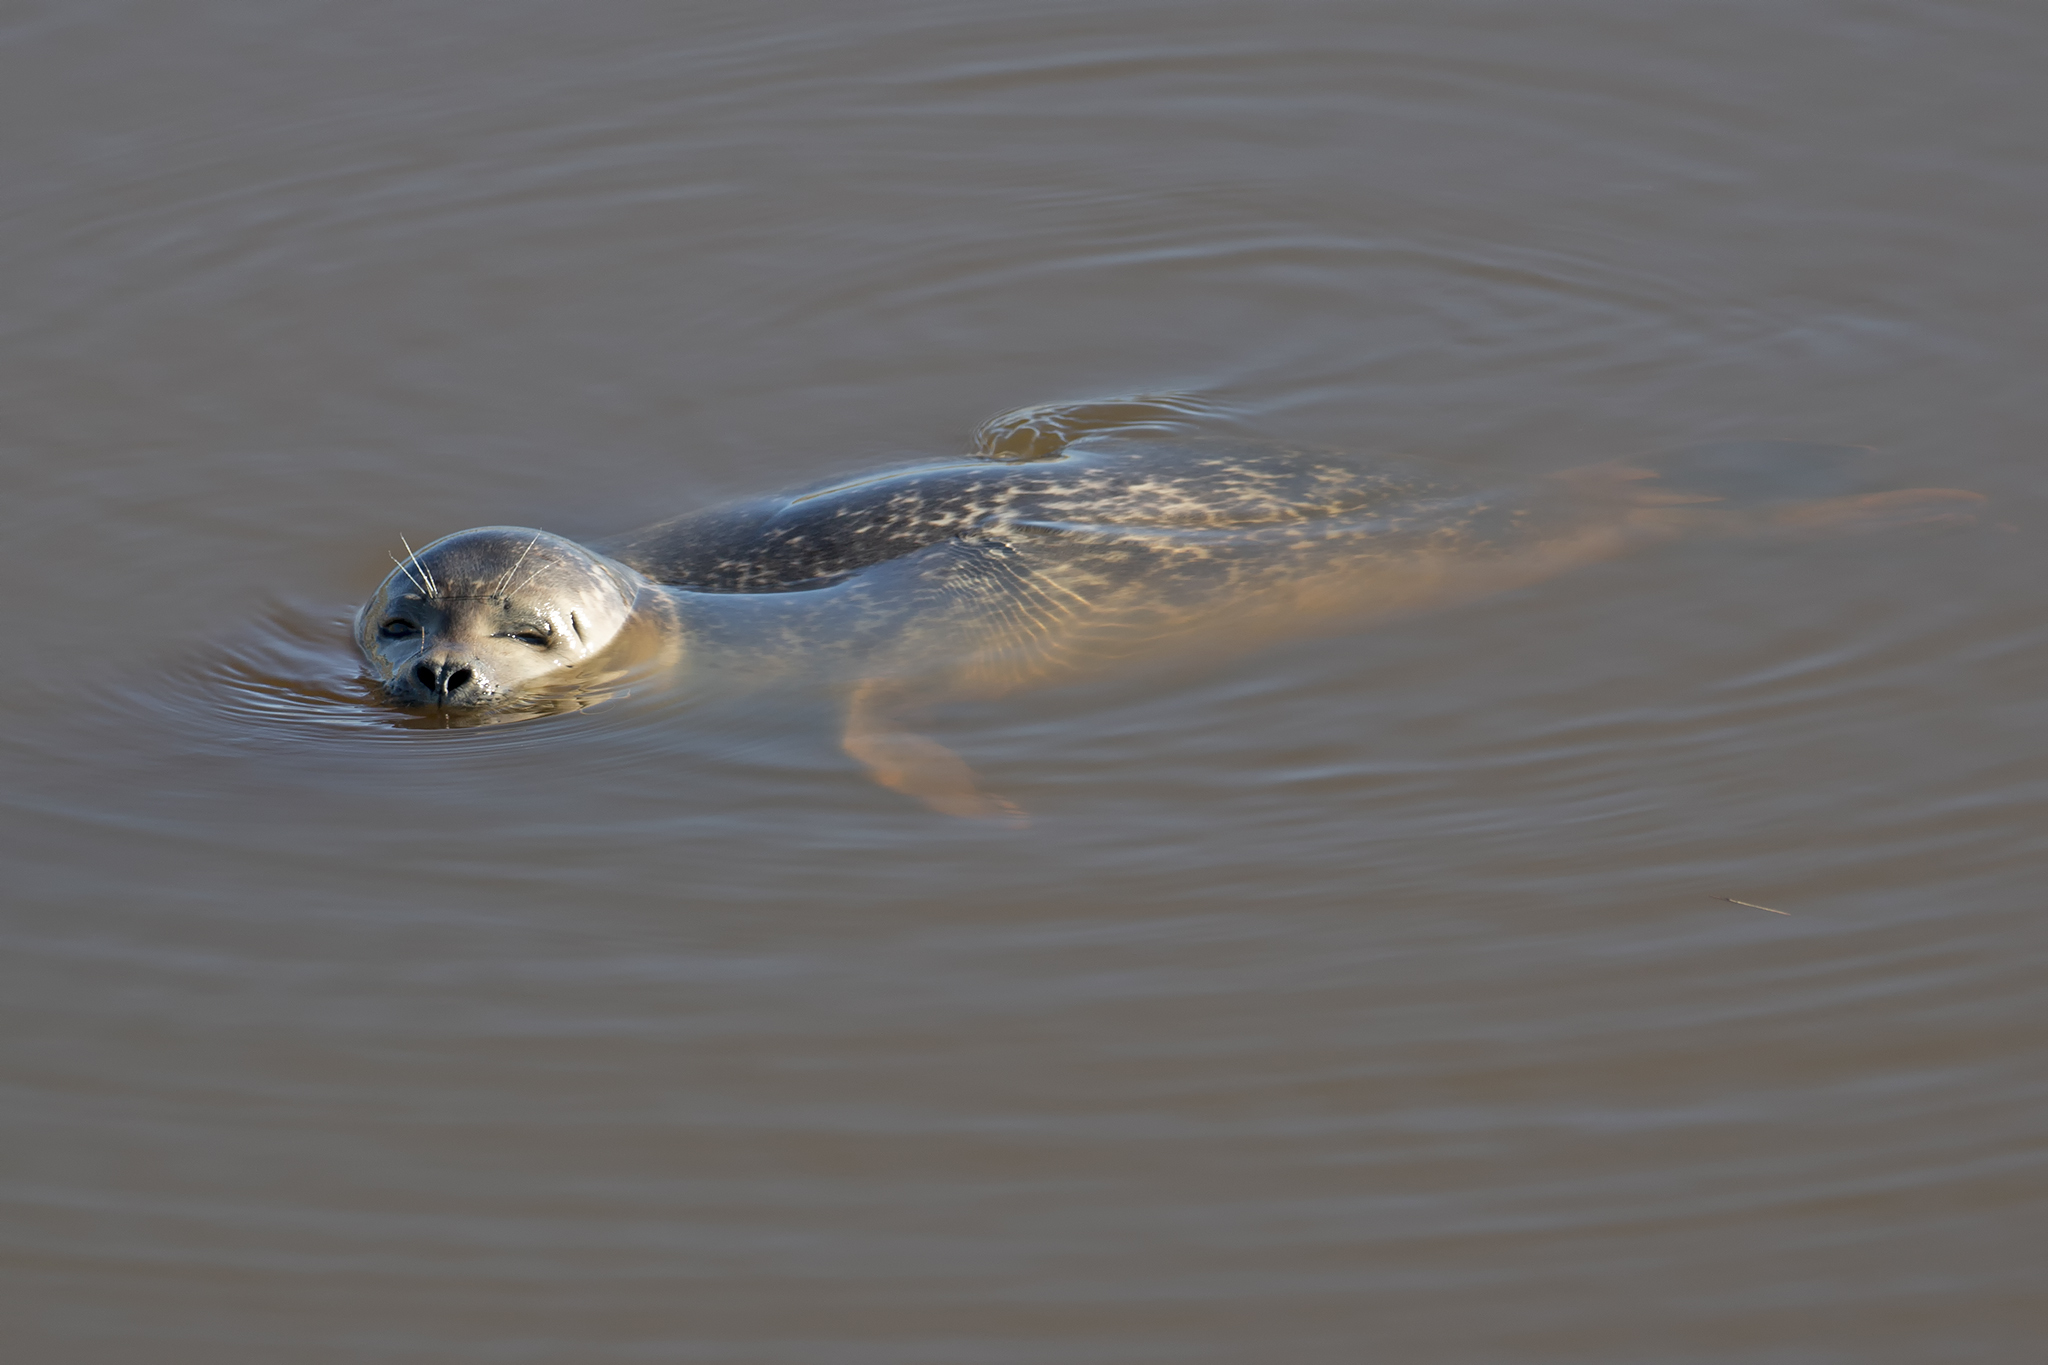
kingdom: Animalia
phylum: Chordata
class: Mammalia
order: Carnivora
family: Phocidae
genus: Phoca
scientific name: Phoca vitulina
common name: Harbor seal
